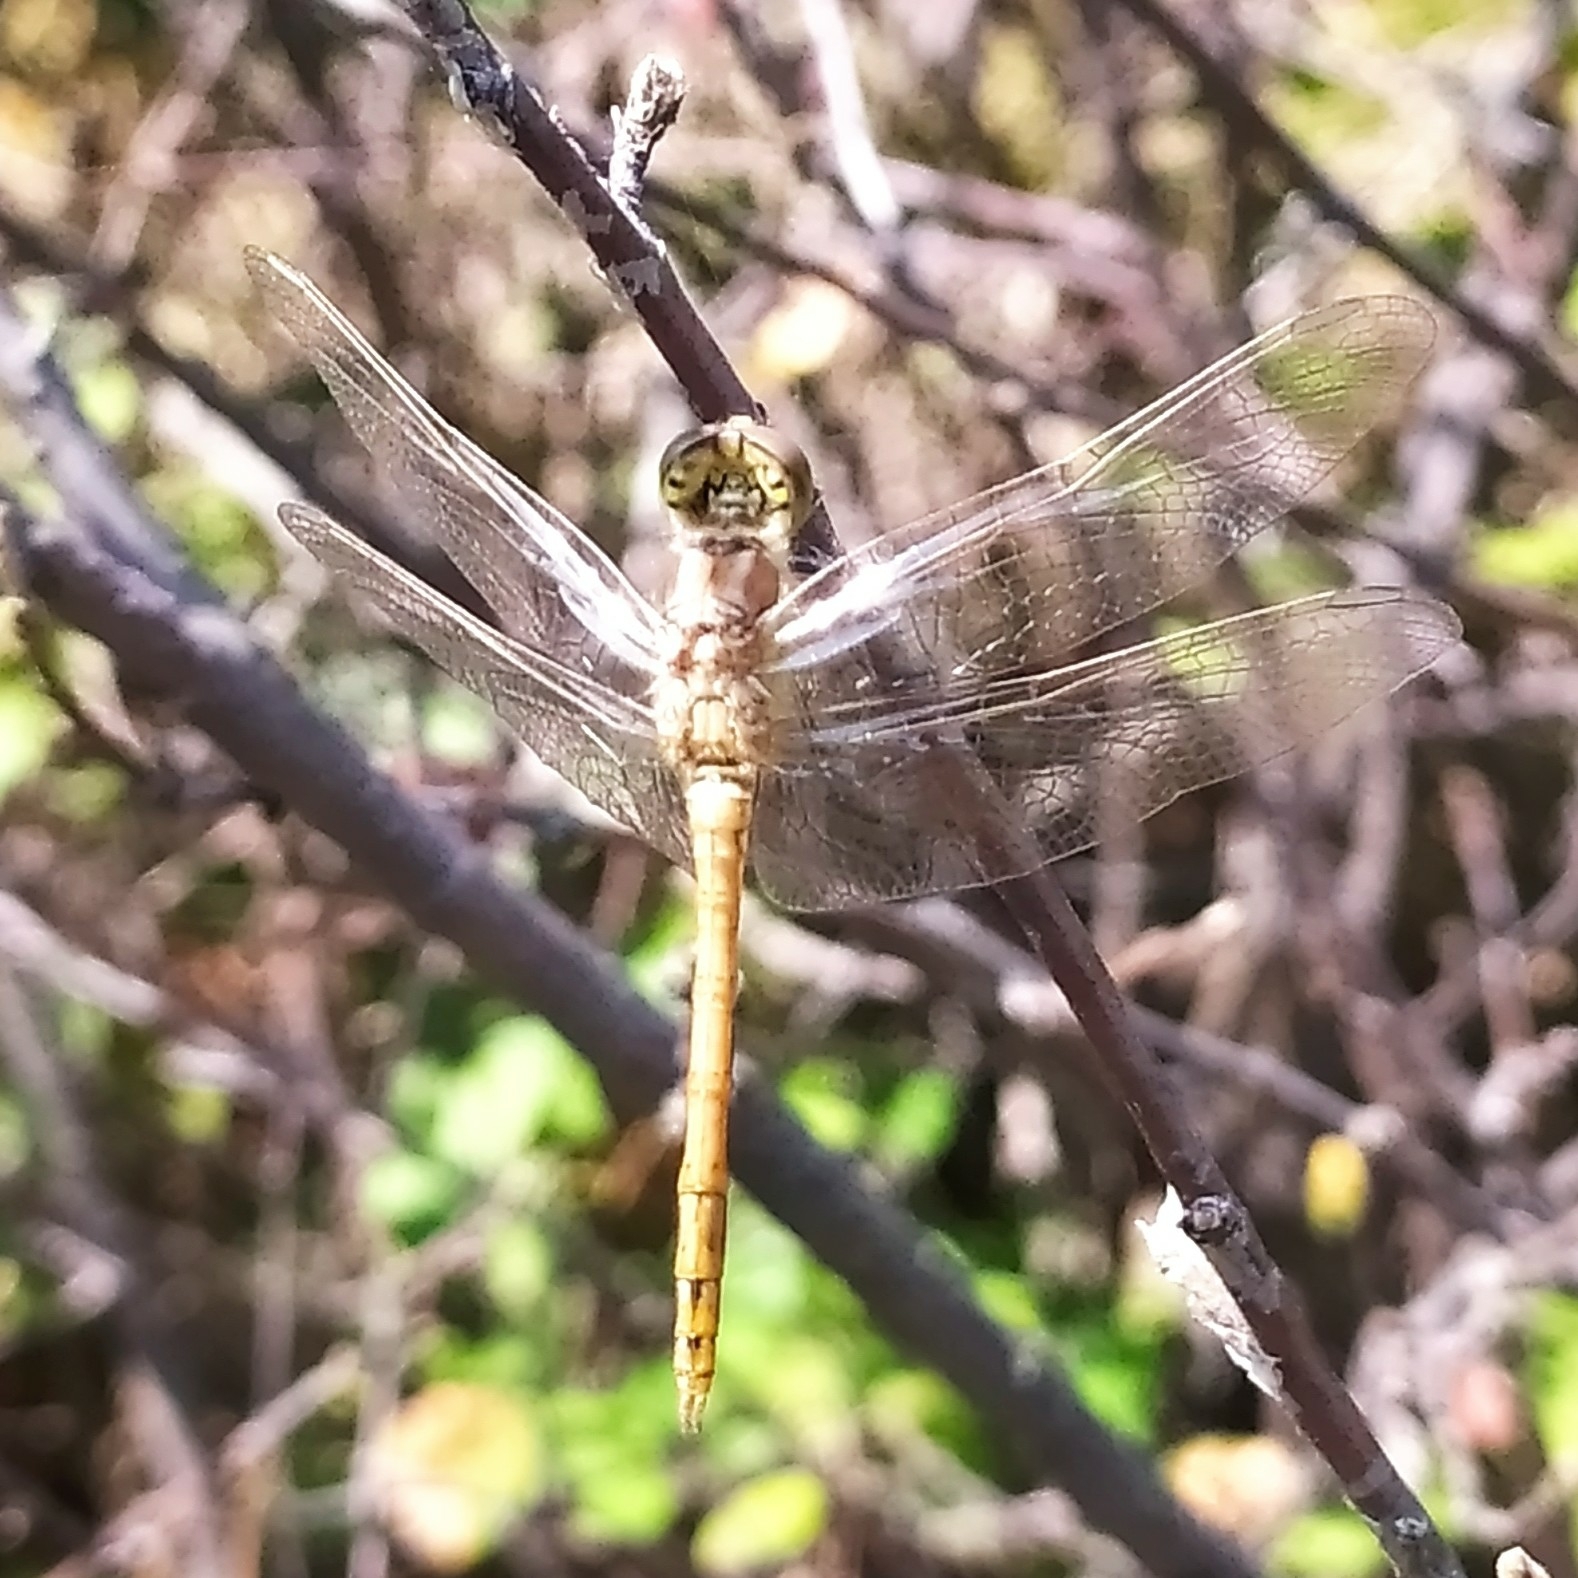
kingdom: Animalia
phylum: Arthropoda
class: Insecta
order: Odonata
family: Libellulidae
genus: Sympetrum
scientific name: Sympetrum vulgatum
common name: Vagrant darter
